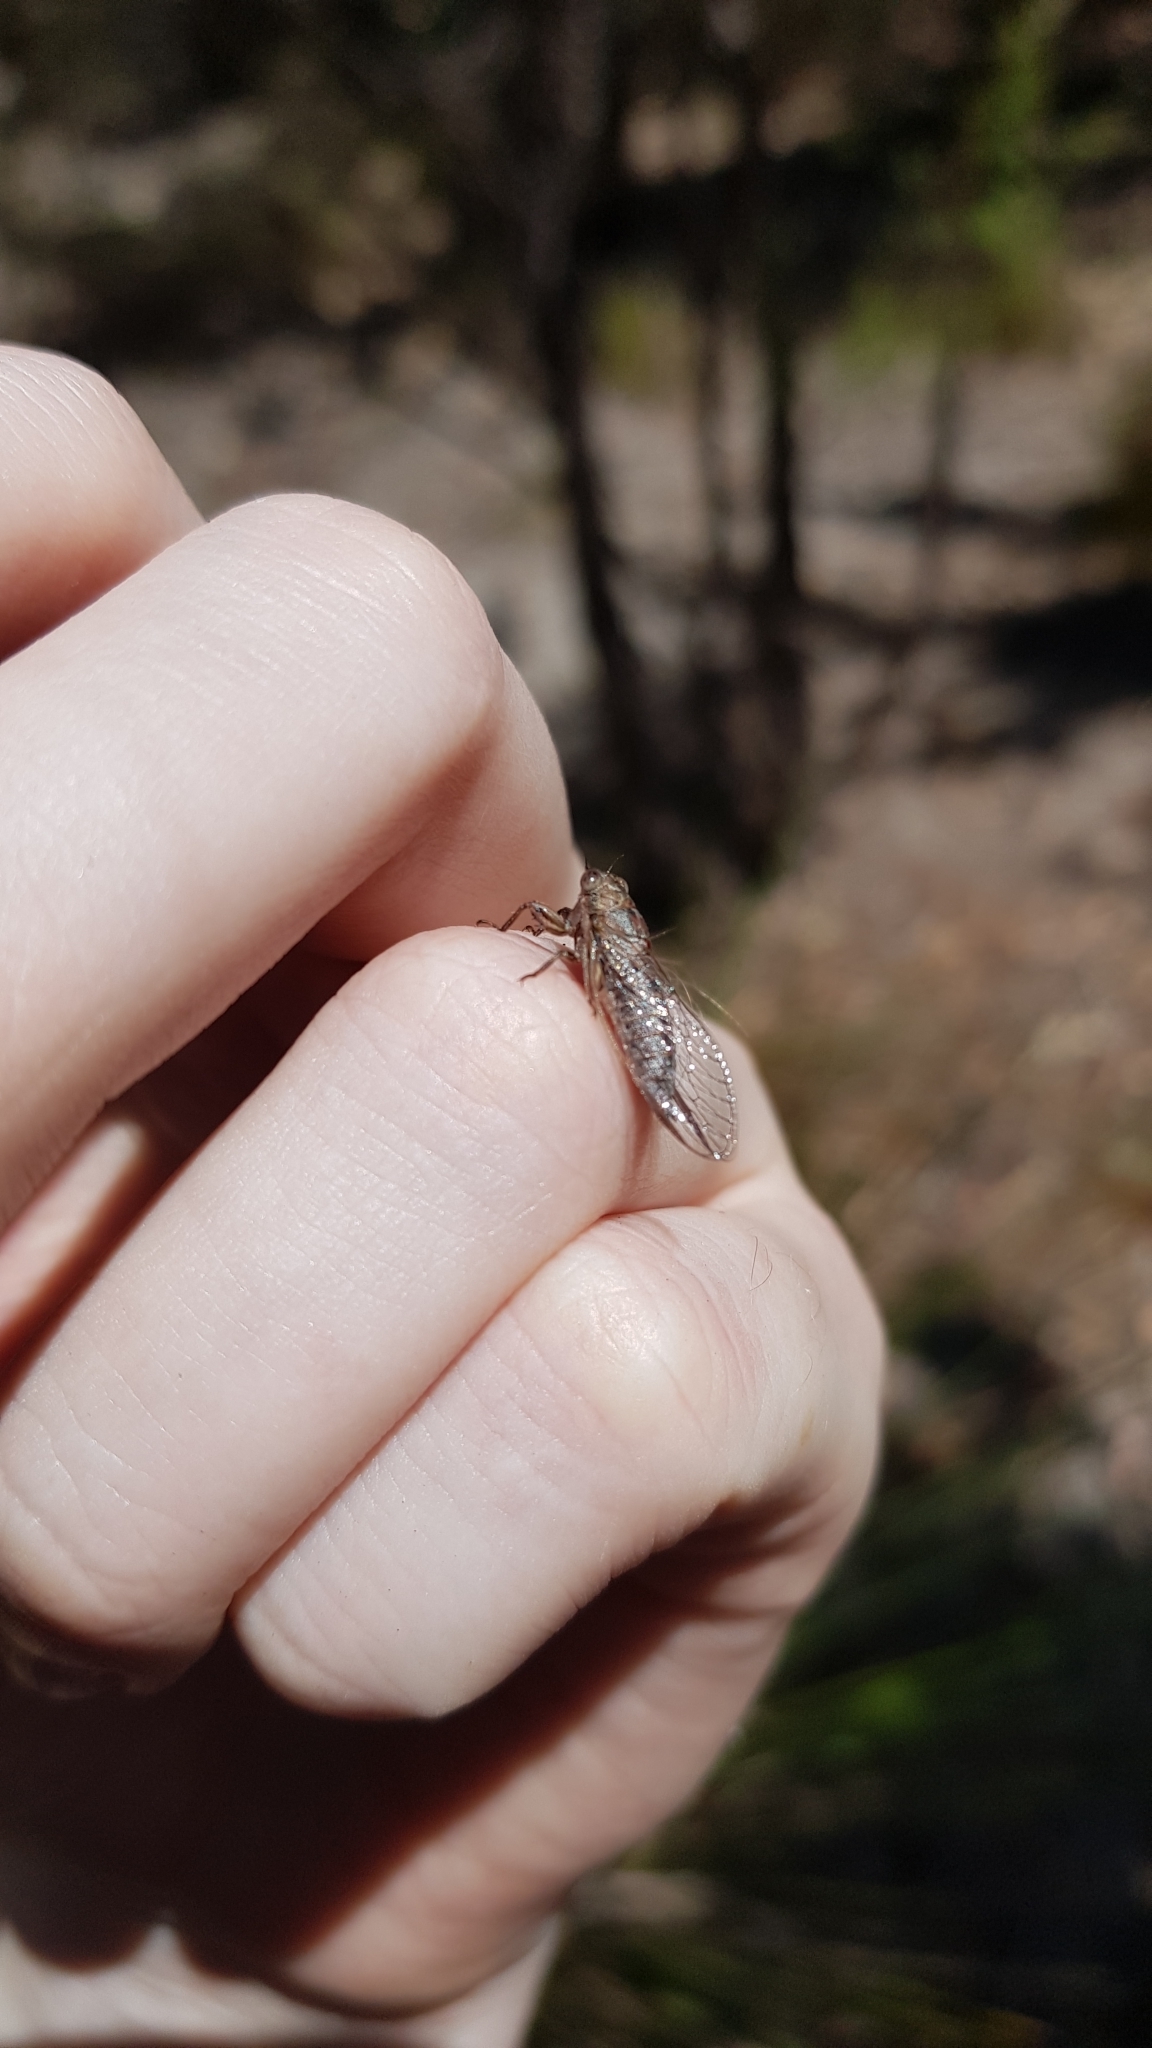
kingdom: Animalia
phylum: Arthropoda
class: Insecta
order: Hemiptera
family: Cicadidae
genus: Drymopsalta
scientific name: Drymopsalta dameli
